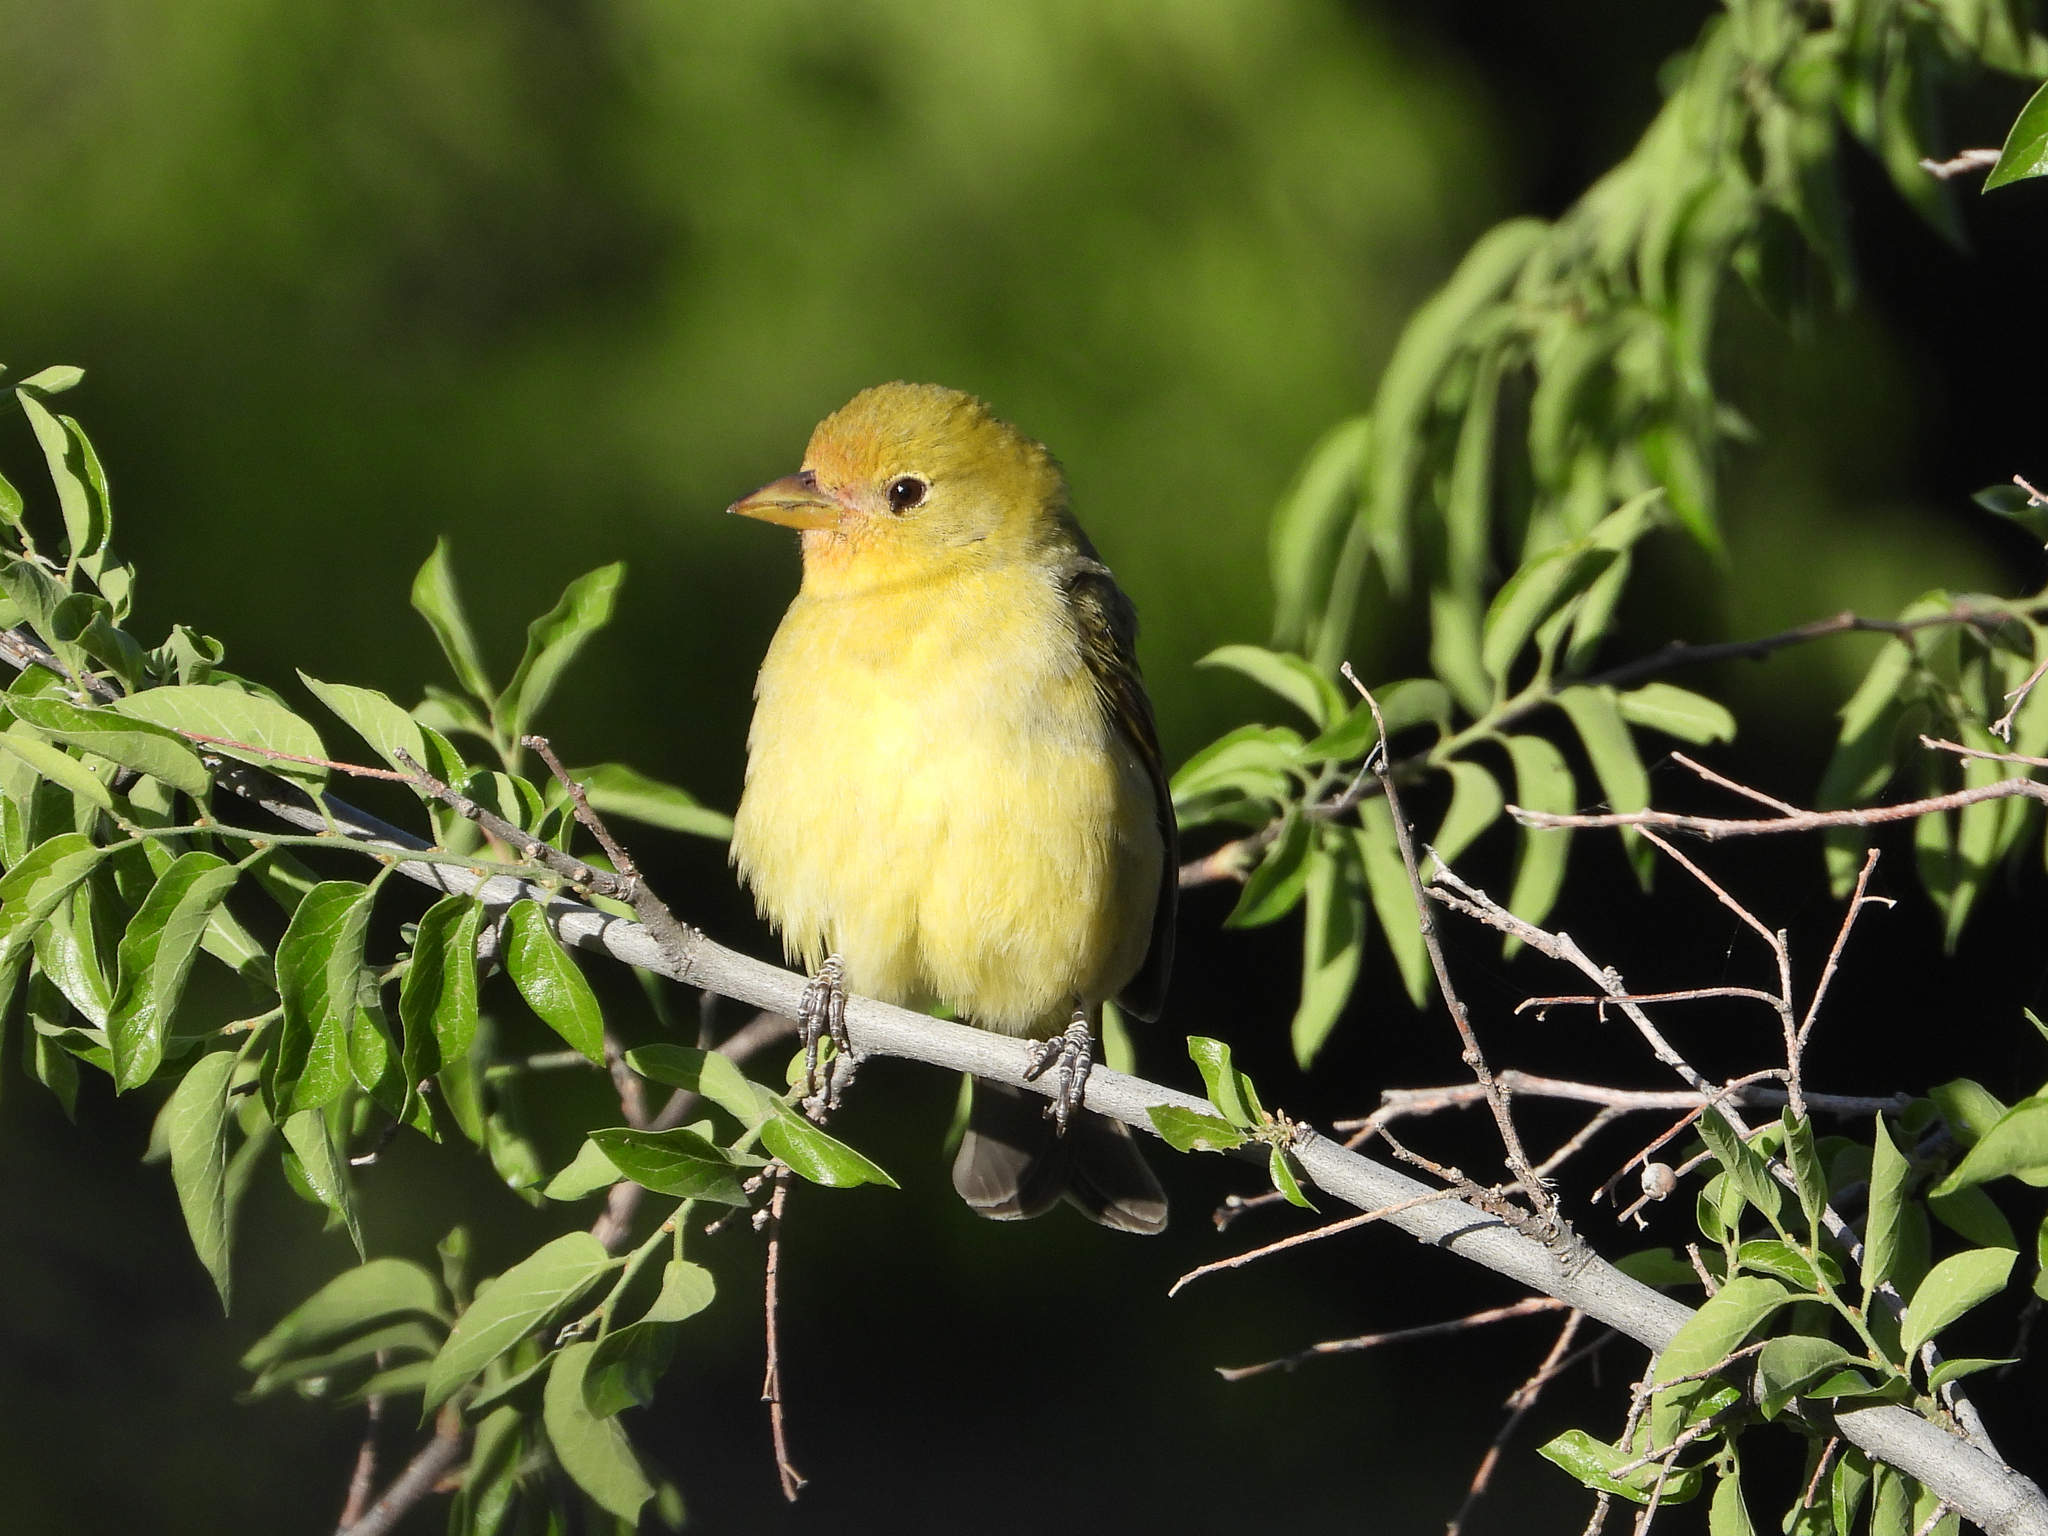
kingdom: Animalia
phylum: Chordata
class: Aves
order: Passeriformes
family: Cardinalidae
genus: Piranga
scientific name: Piranga ludoviciana
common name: Western tanager
